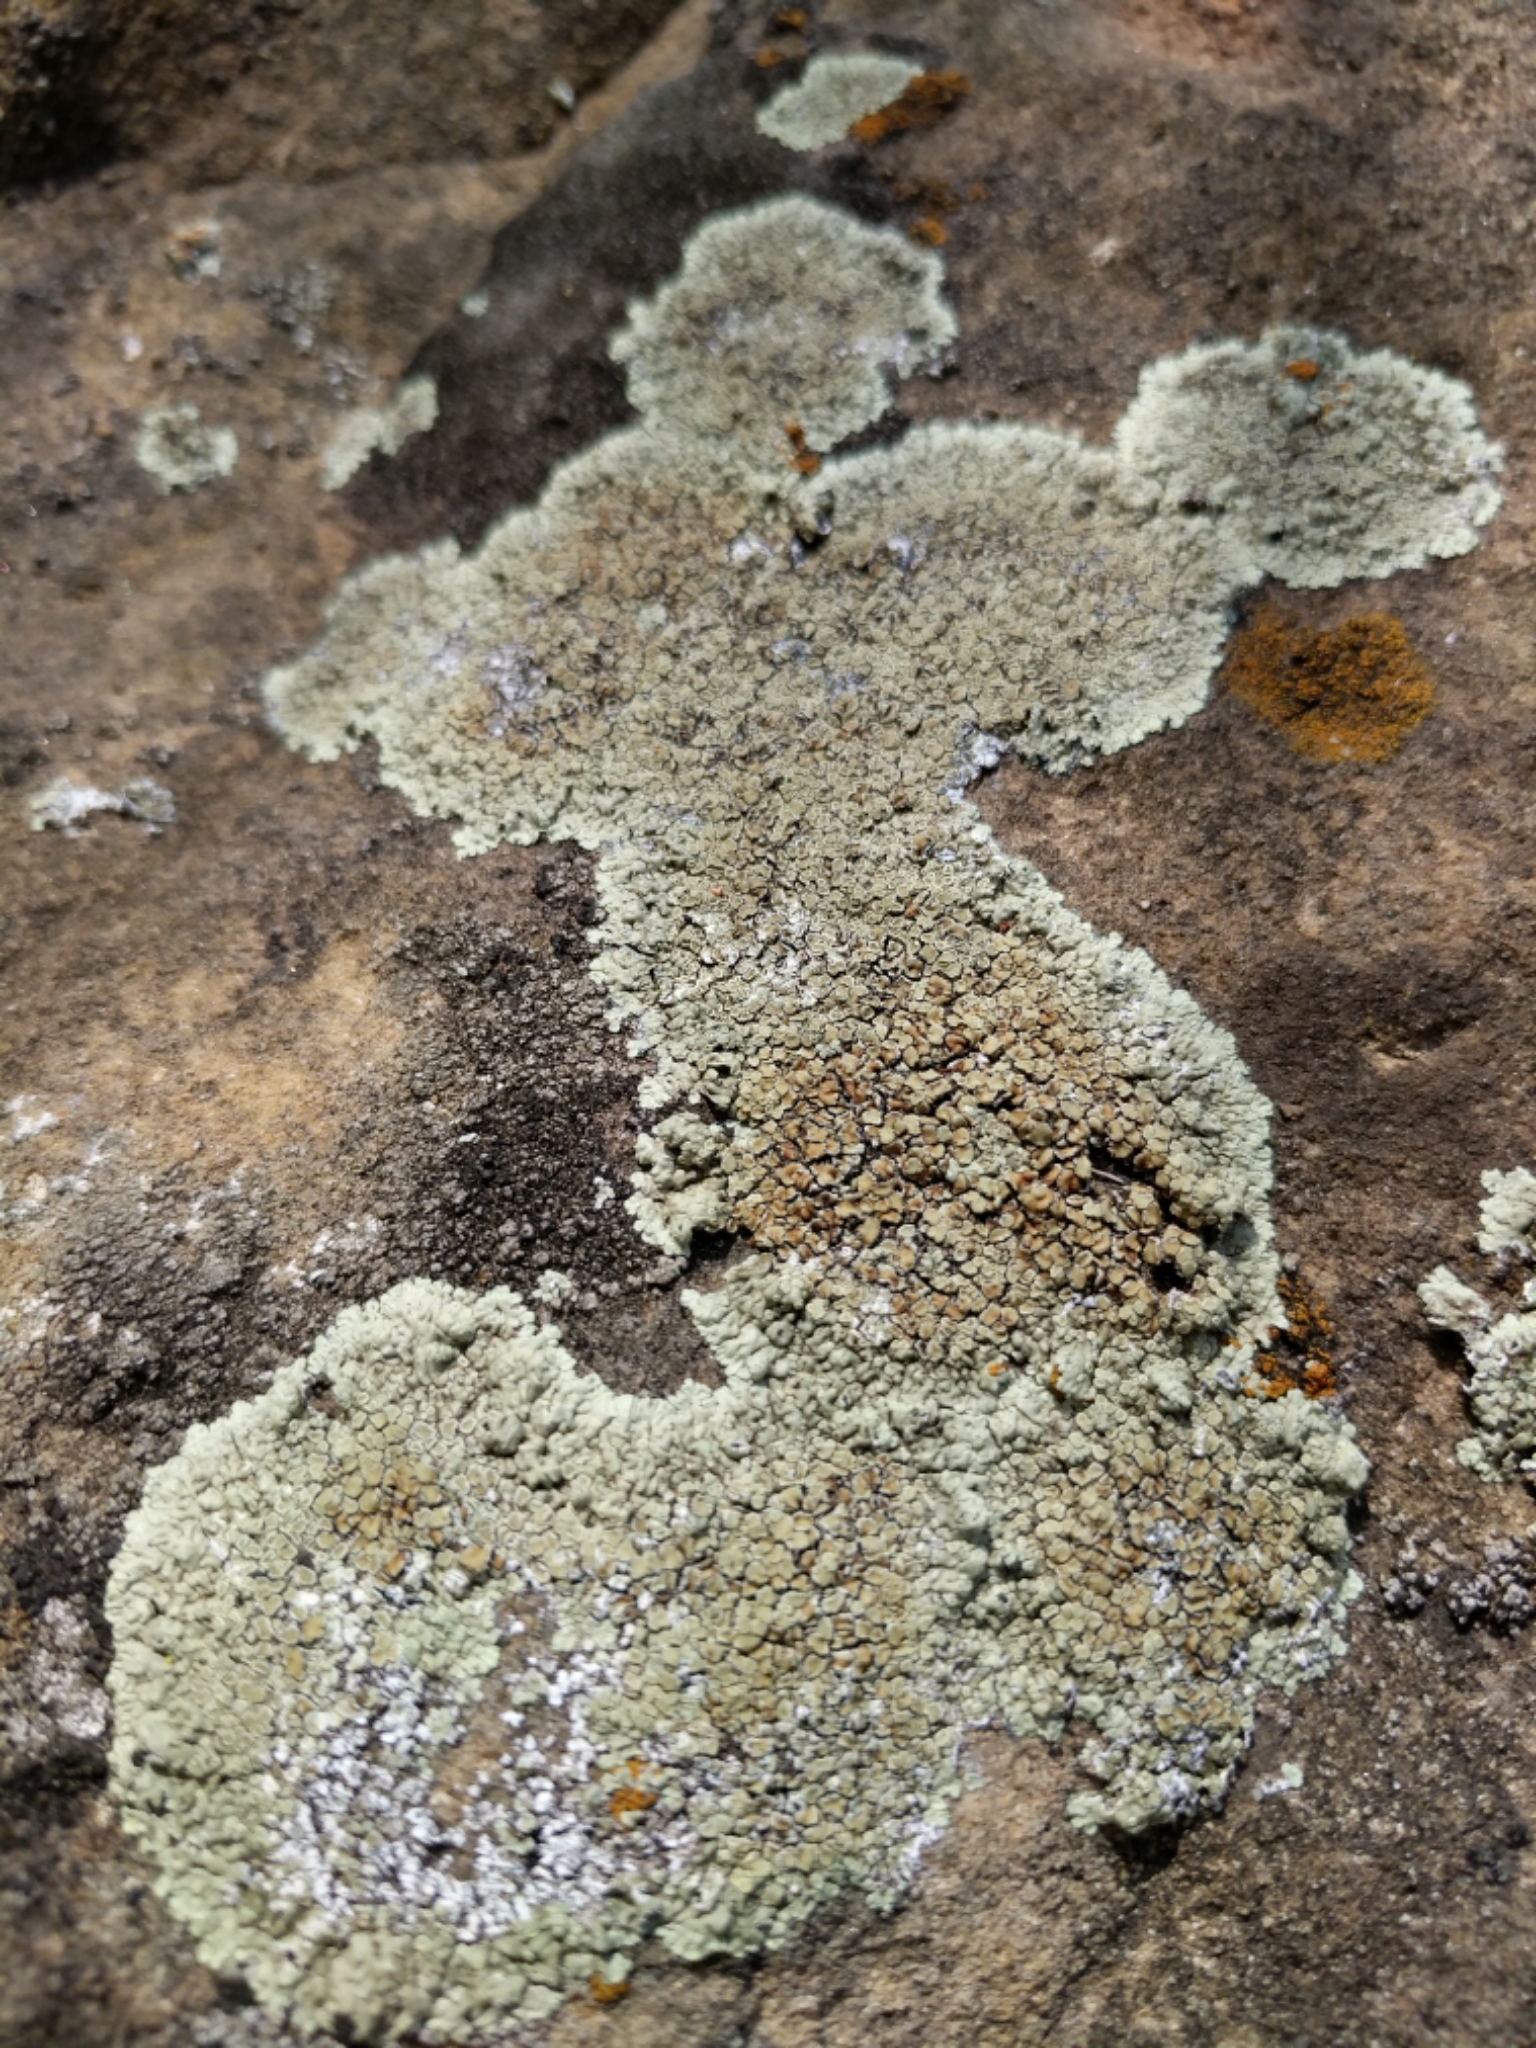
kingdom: Fungi
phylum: Ascomycota
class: Lecanoromycetes
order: Lecanorales
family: Lecanoraceae
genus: Protoparmeliopsis
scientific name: Protoparmeliopsis muralis
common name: Stonewall rim lichen
